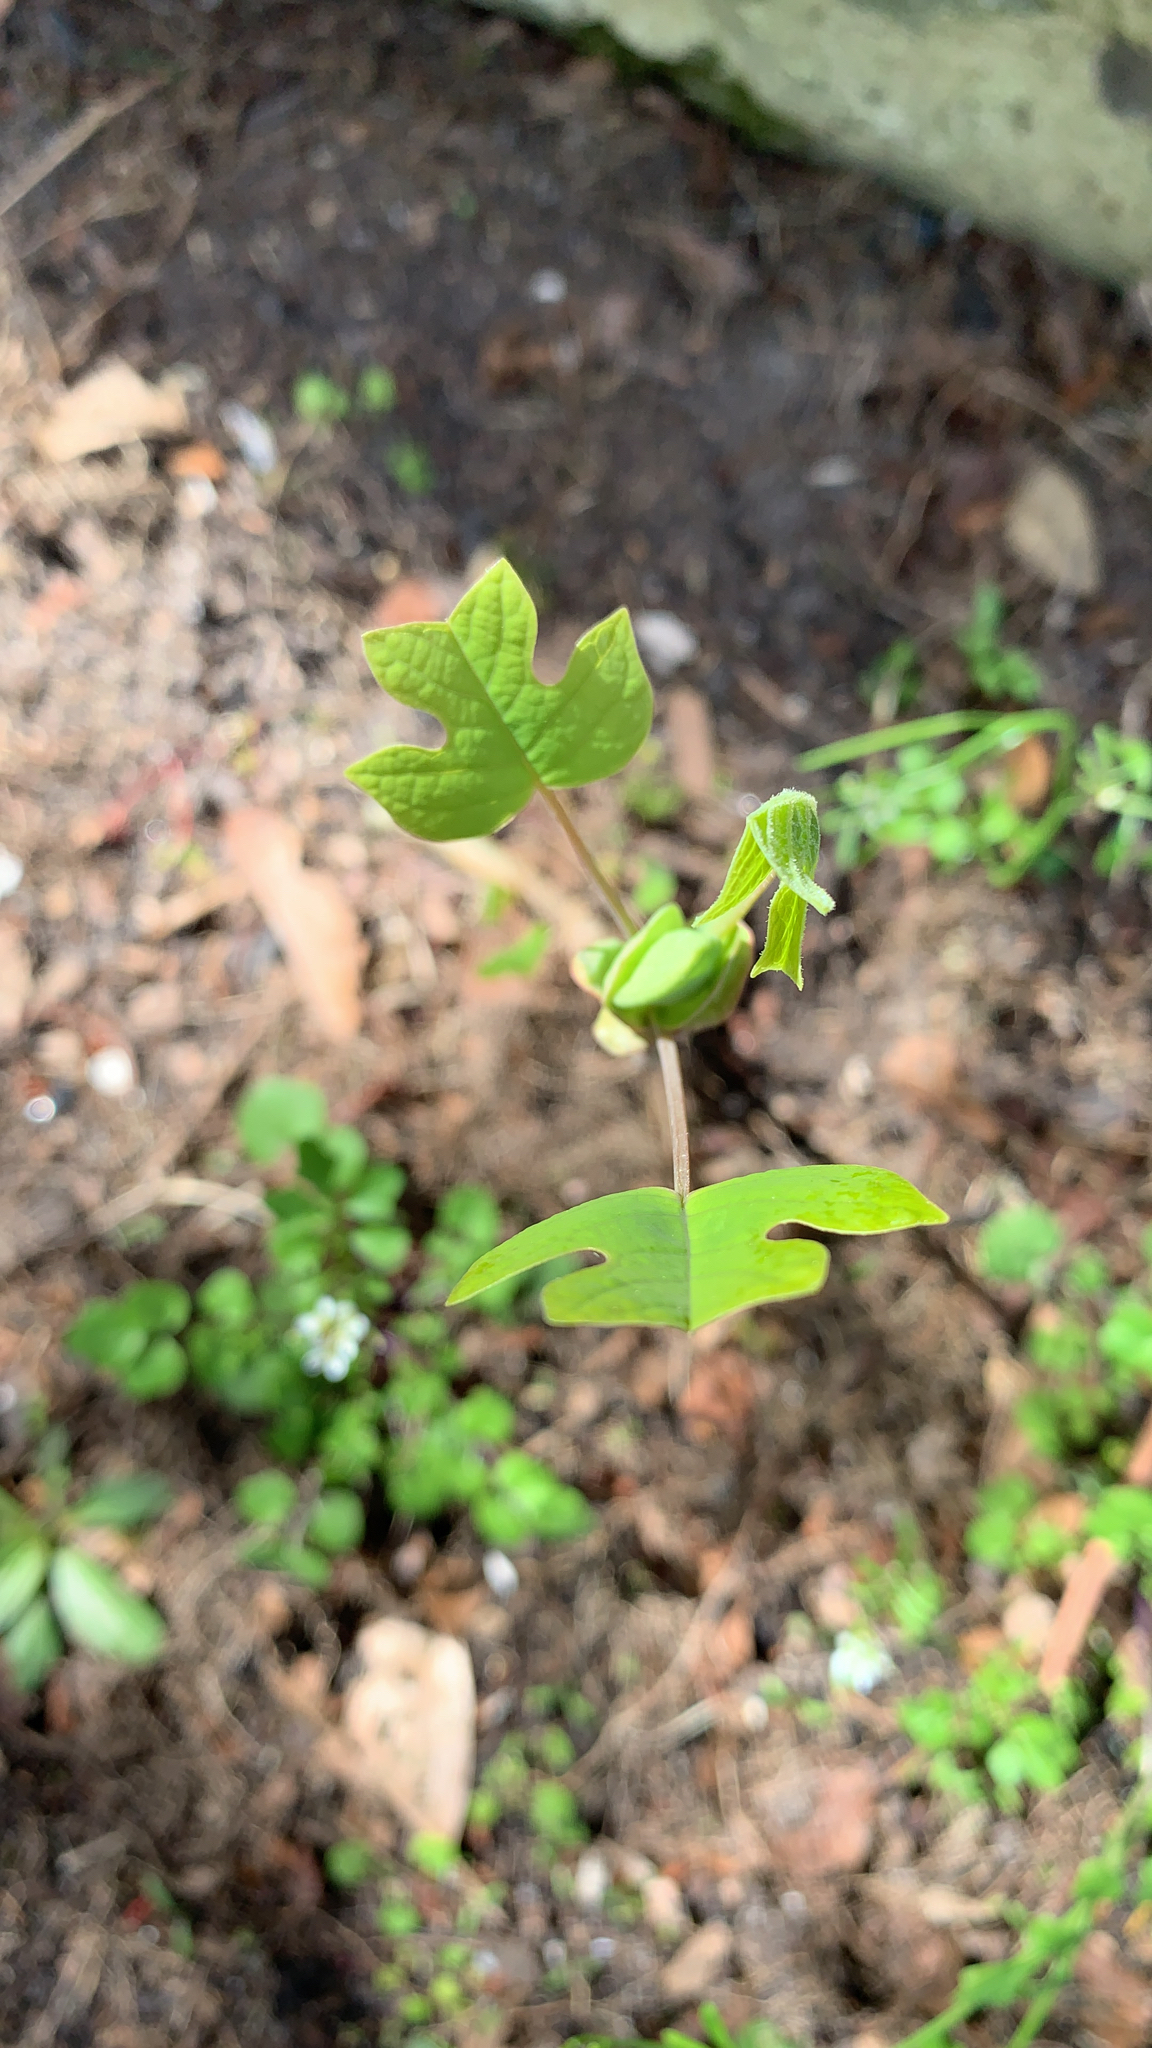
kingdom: Plantae
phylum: Tracheophyta
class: Magnoliopsida
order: Magnoliales
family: Magnoliaceae
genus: Liriodendron
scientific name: Liriodendron tulipifera
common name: Tulip tree
